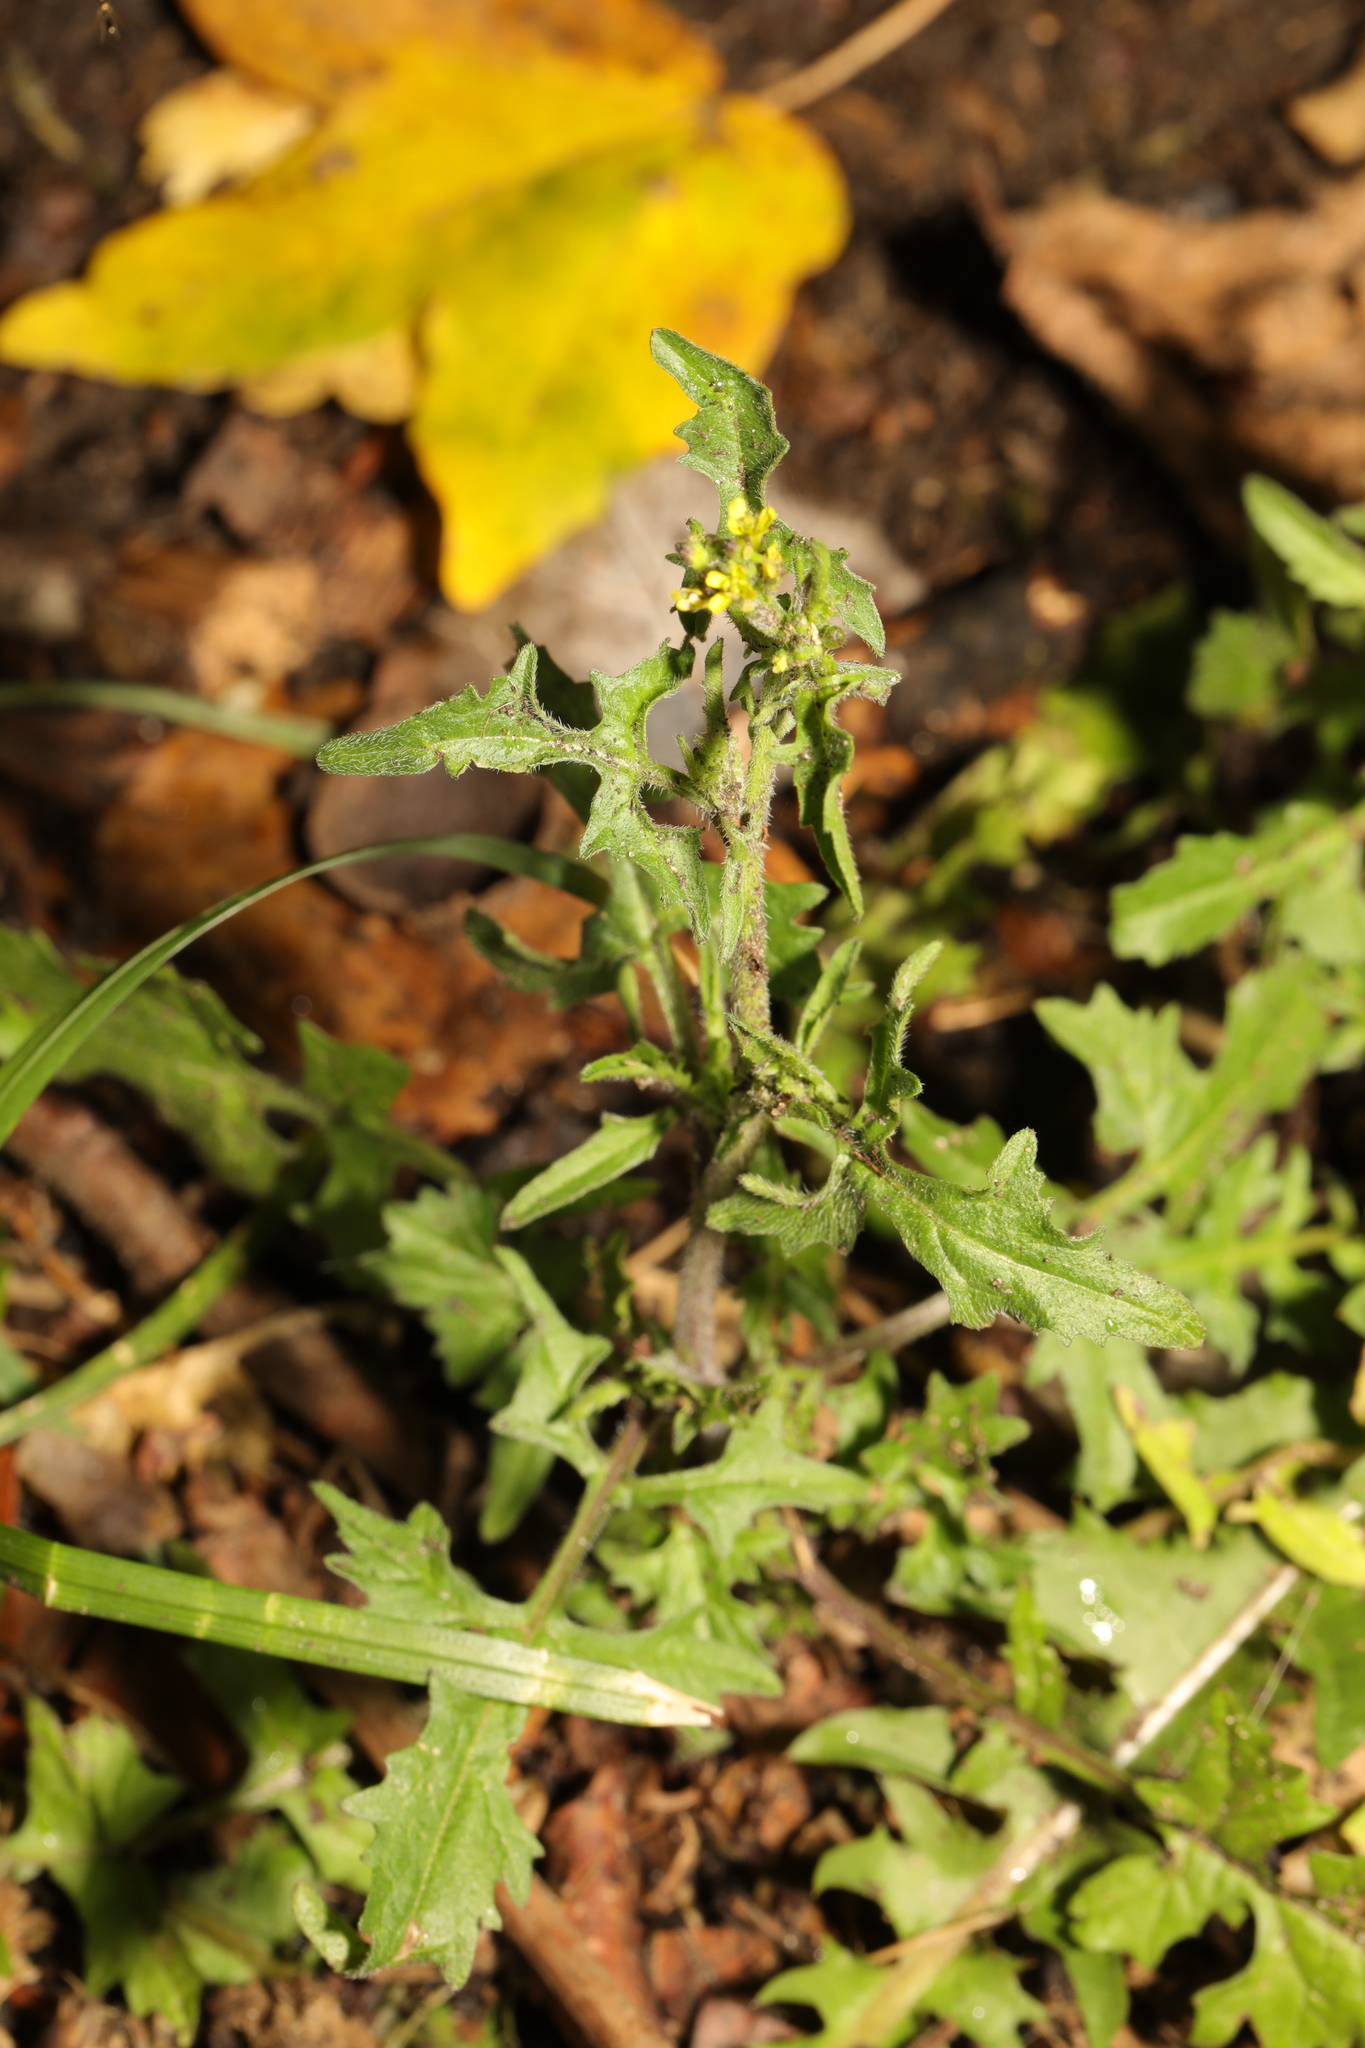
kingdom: Plantae
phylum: Tracheophyta
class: Magnoliopsida
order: Brassicales
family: Brassicaceae
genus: Sisymbrium
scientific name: Sisymbrium officinale
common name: Hedge mustard
